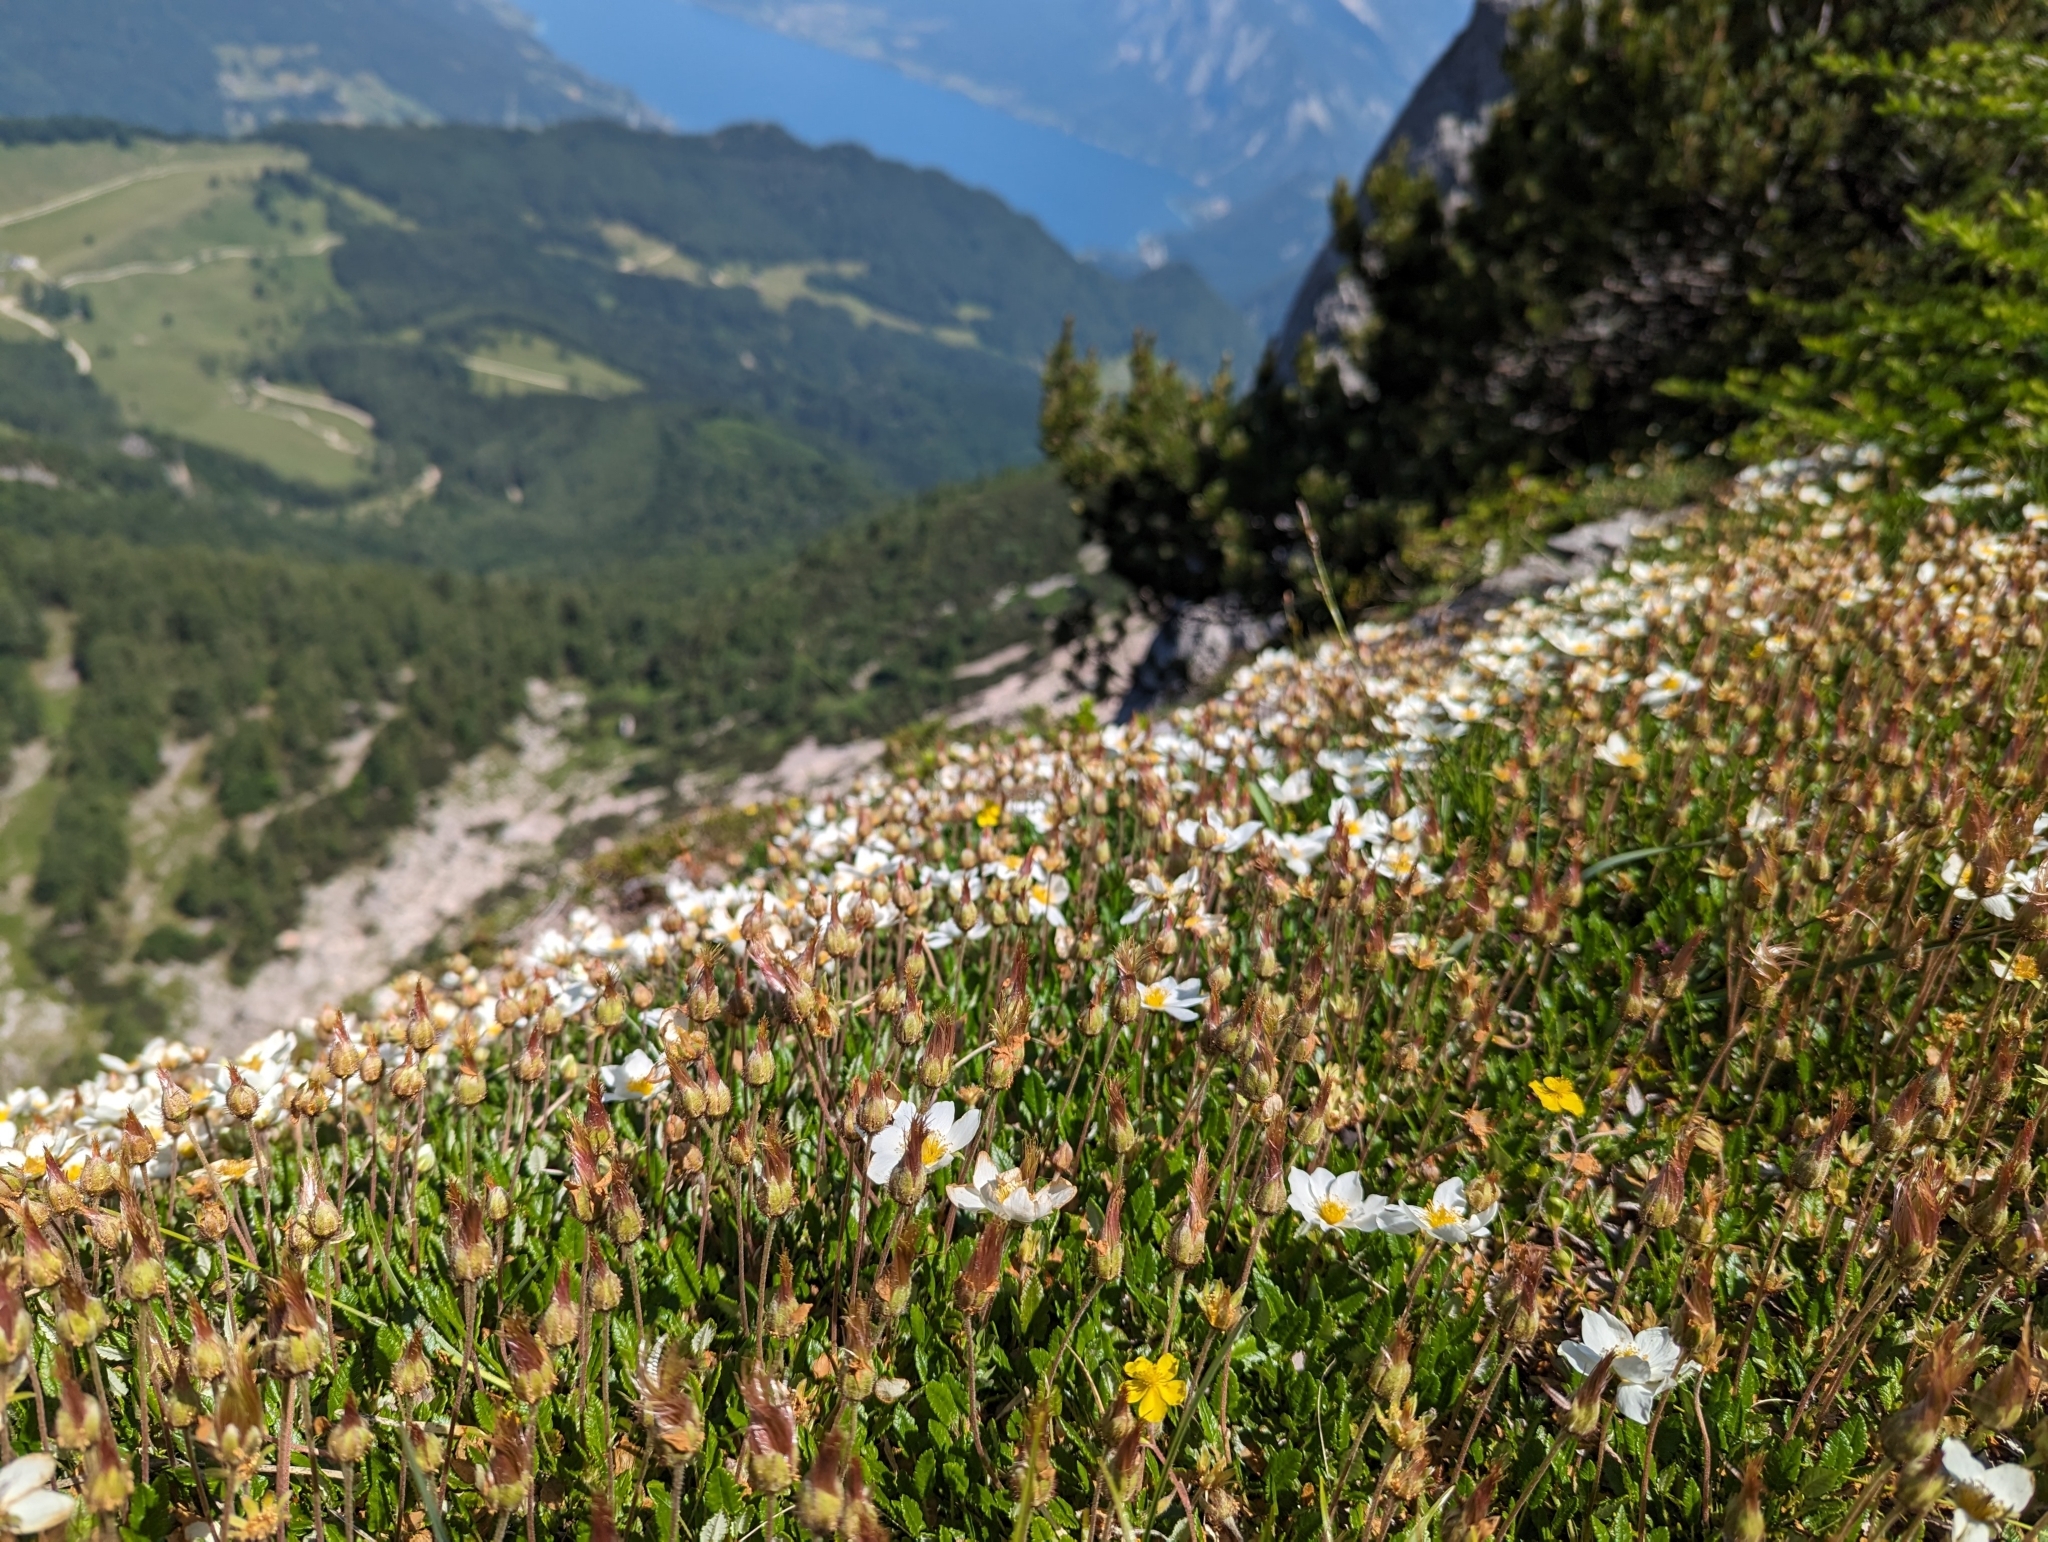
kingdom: Plantae
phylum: Tracheophyta
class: Magnoliopsida
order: Rosales
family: Rosaceae
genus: Dryas
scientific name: Dryas octopetala
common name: Eight-petal mountain-avens
